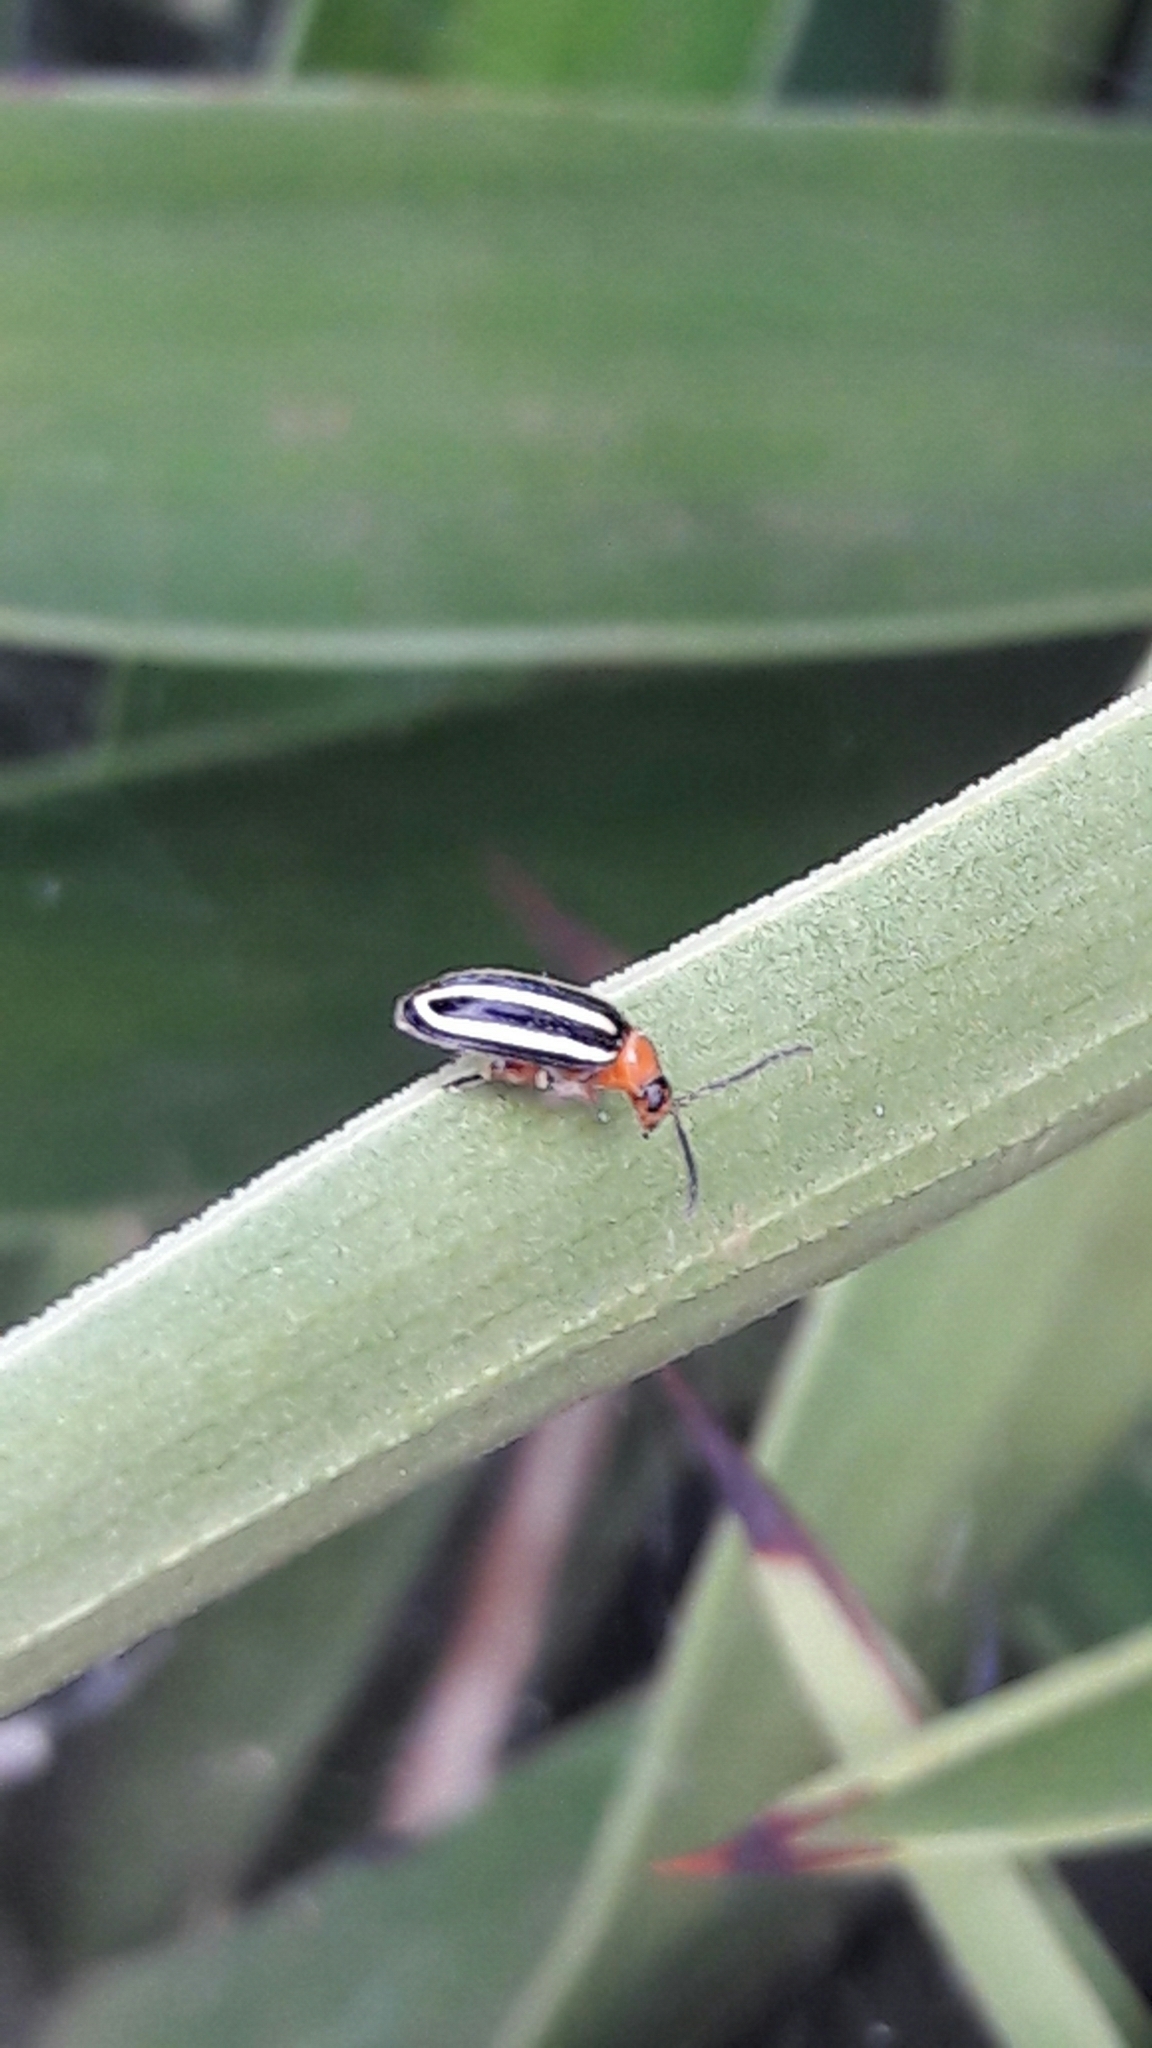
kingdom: Animalia
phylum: Arthropoda
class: Insecta
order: Coleoptera
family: Chrysomelidae
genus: Disonycha
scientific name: Disonycha glabrata
